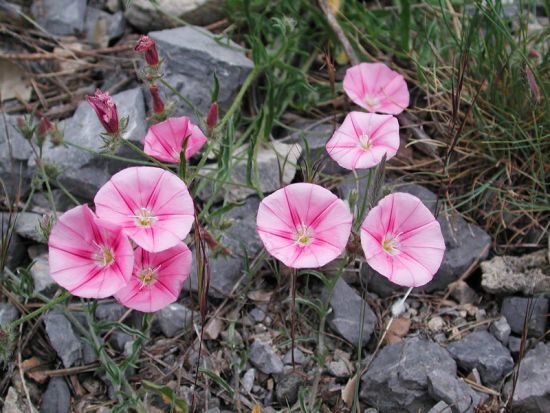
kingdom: Plantae
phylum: Tracheophyta
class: Magnoliopsida
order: Solanales
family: Convolvulaceae
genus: Convolvulus
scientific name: Convolvulus cantabrica
